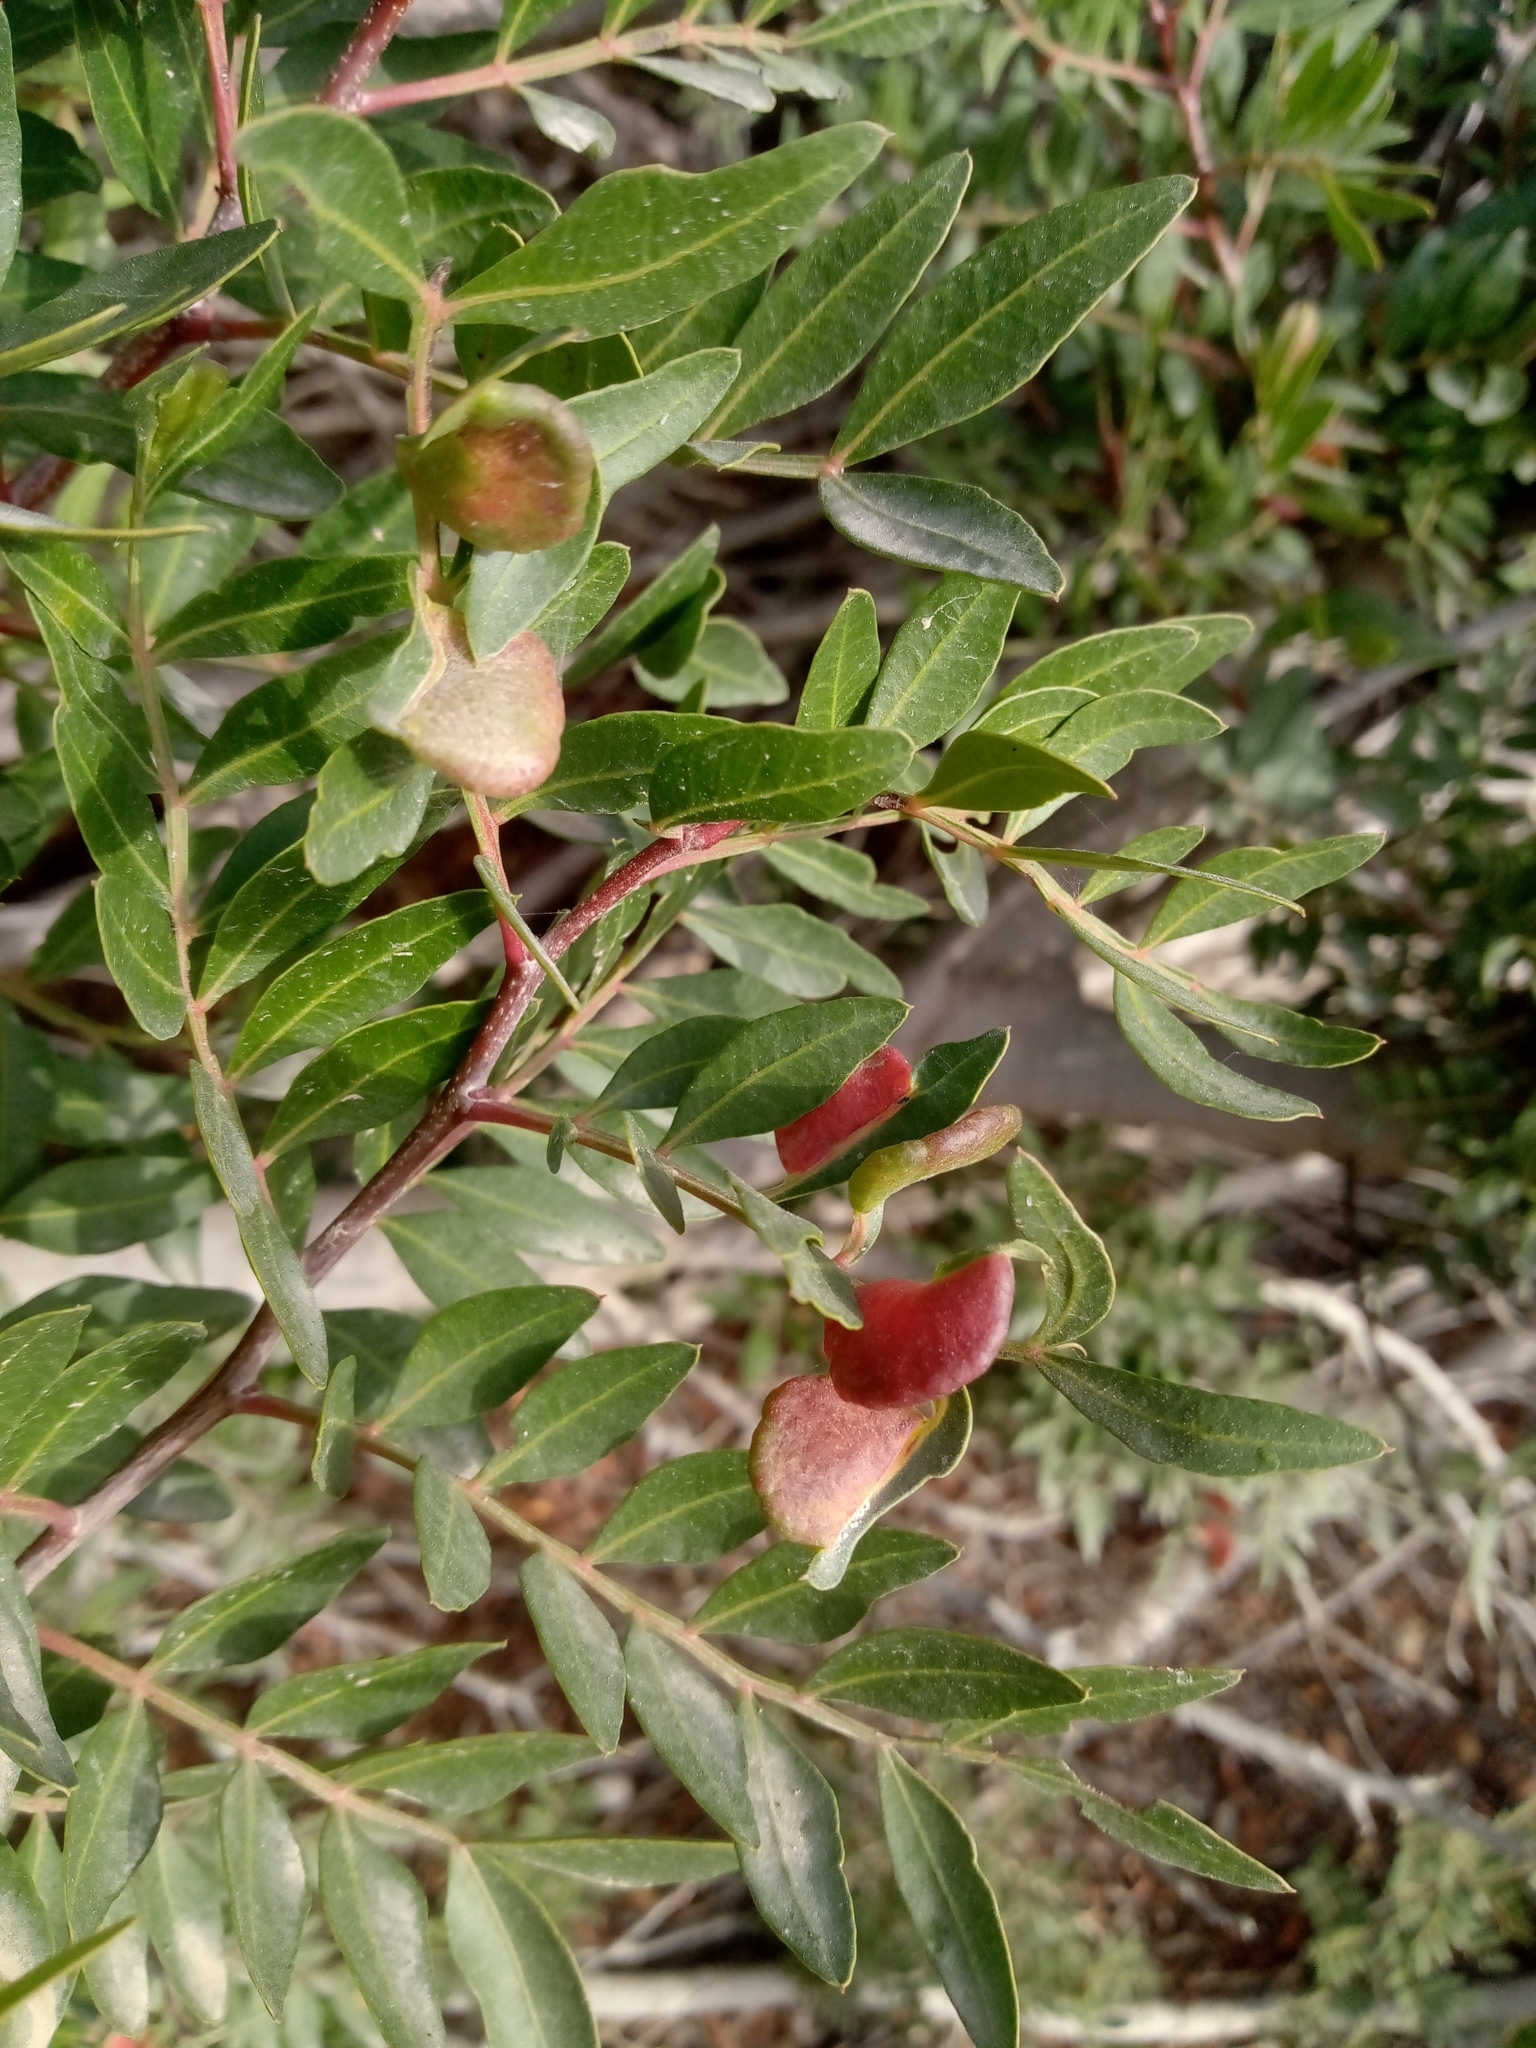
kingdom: Animalia
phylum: Arthropoda
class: Insecta
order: Hemiptera
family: Aphididae
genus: Aploneura
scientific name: Aploneura lentisci
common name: Mealy grass root aphid
